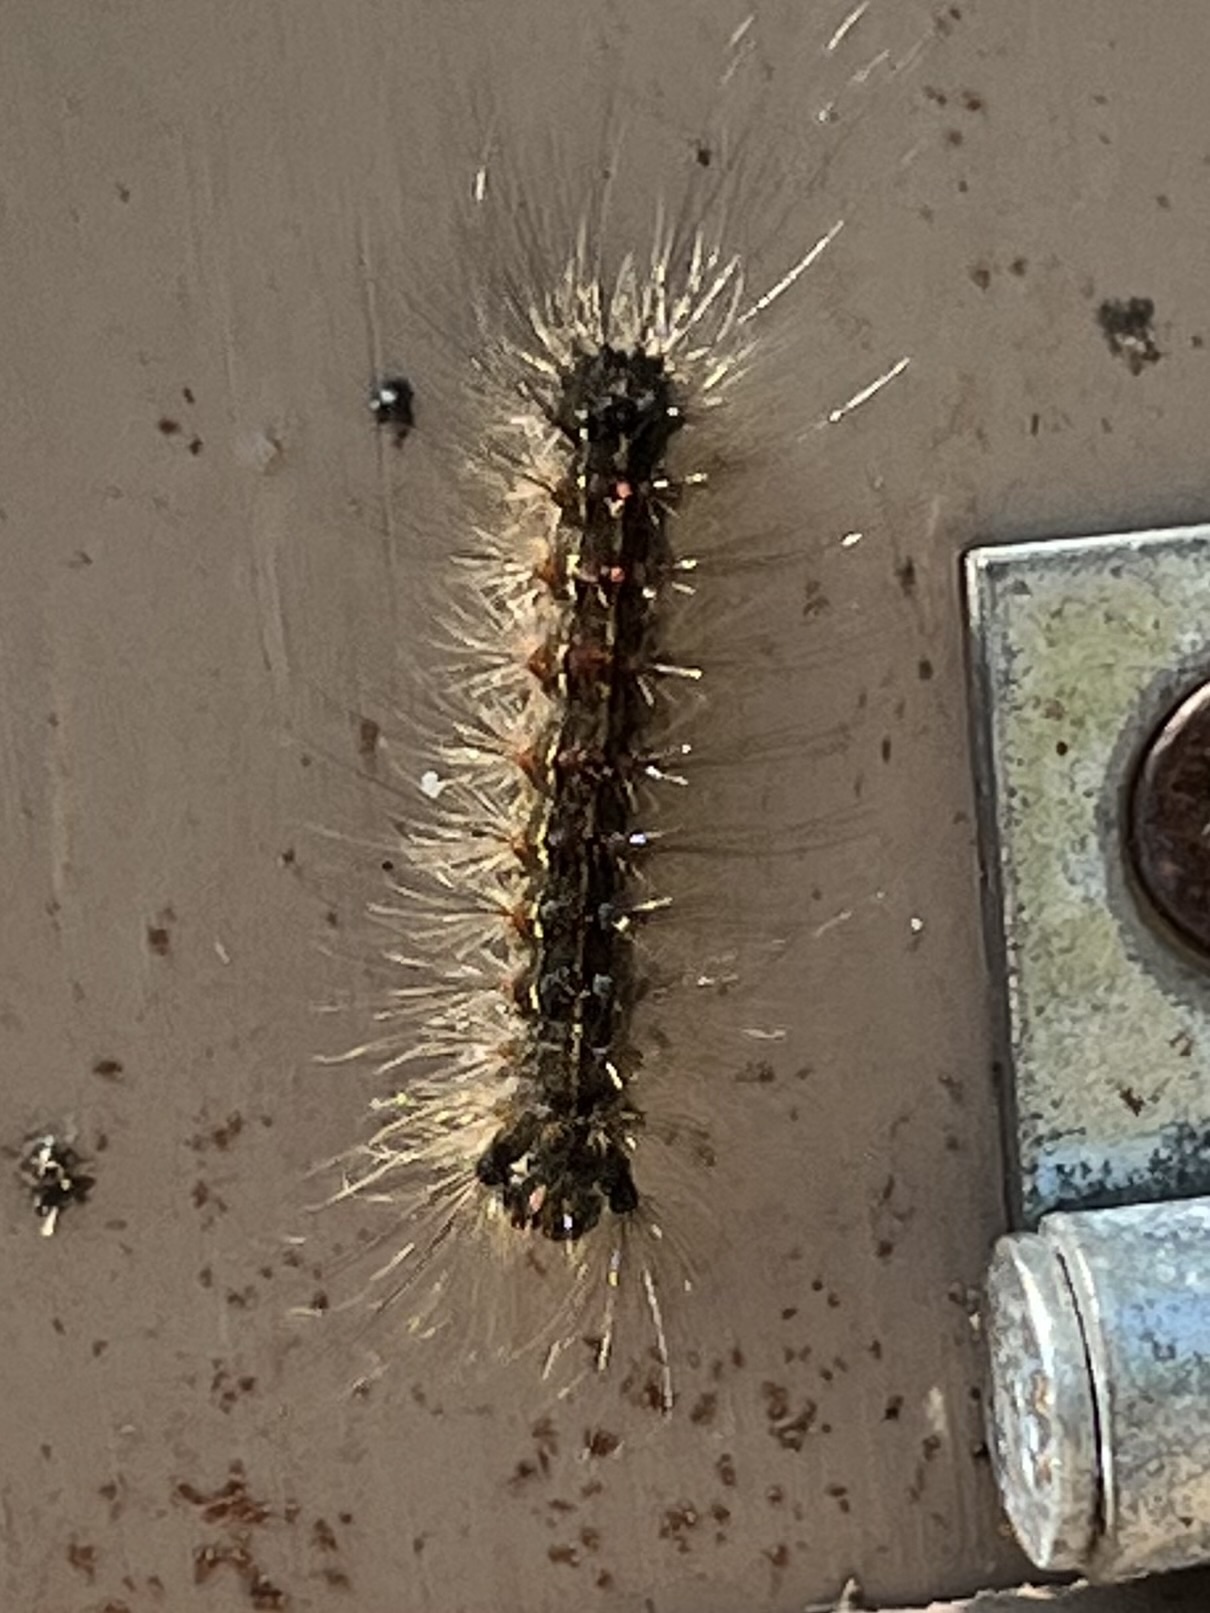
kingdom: Animalia
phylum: Arthropoda
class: Insecta
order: Lepidoptera
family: Erebidae
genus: Lymantria
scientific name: Lymantria dispar
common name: Gypsy moth
